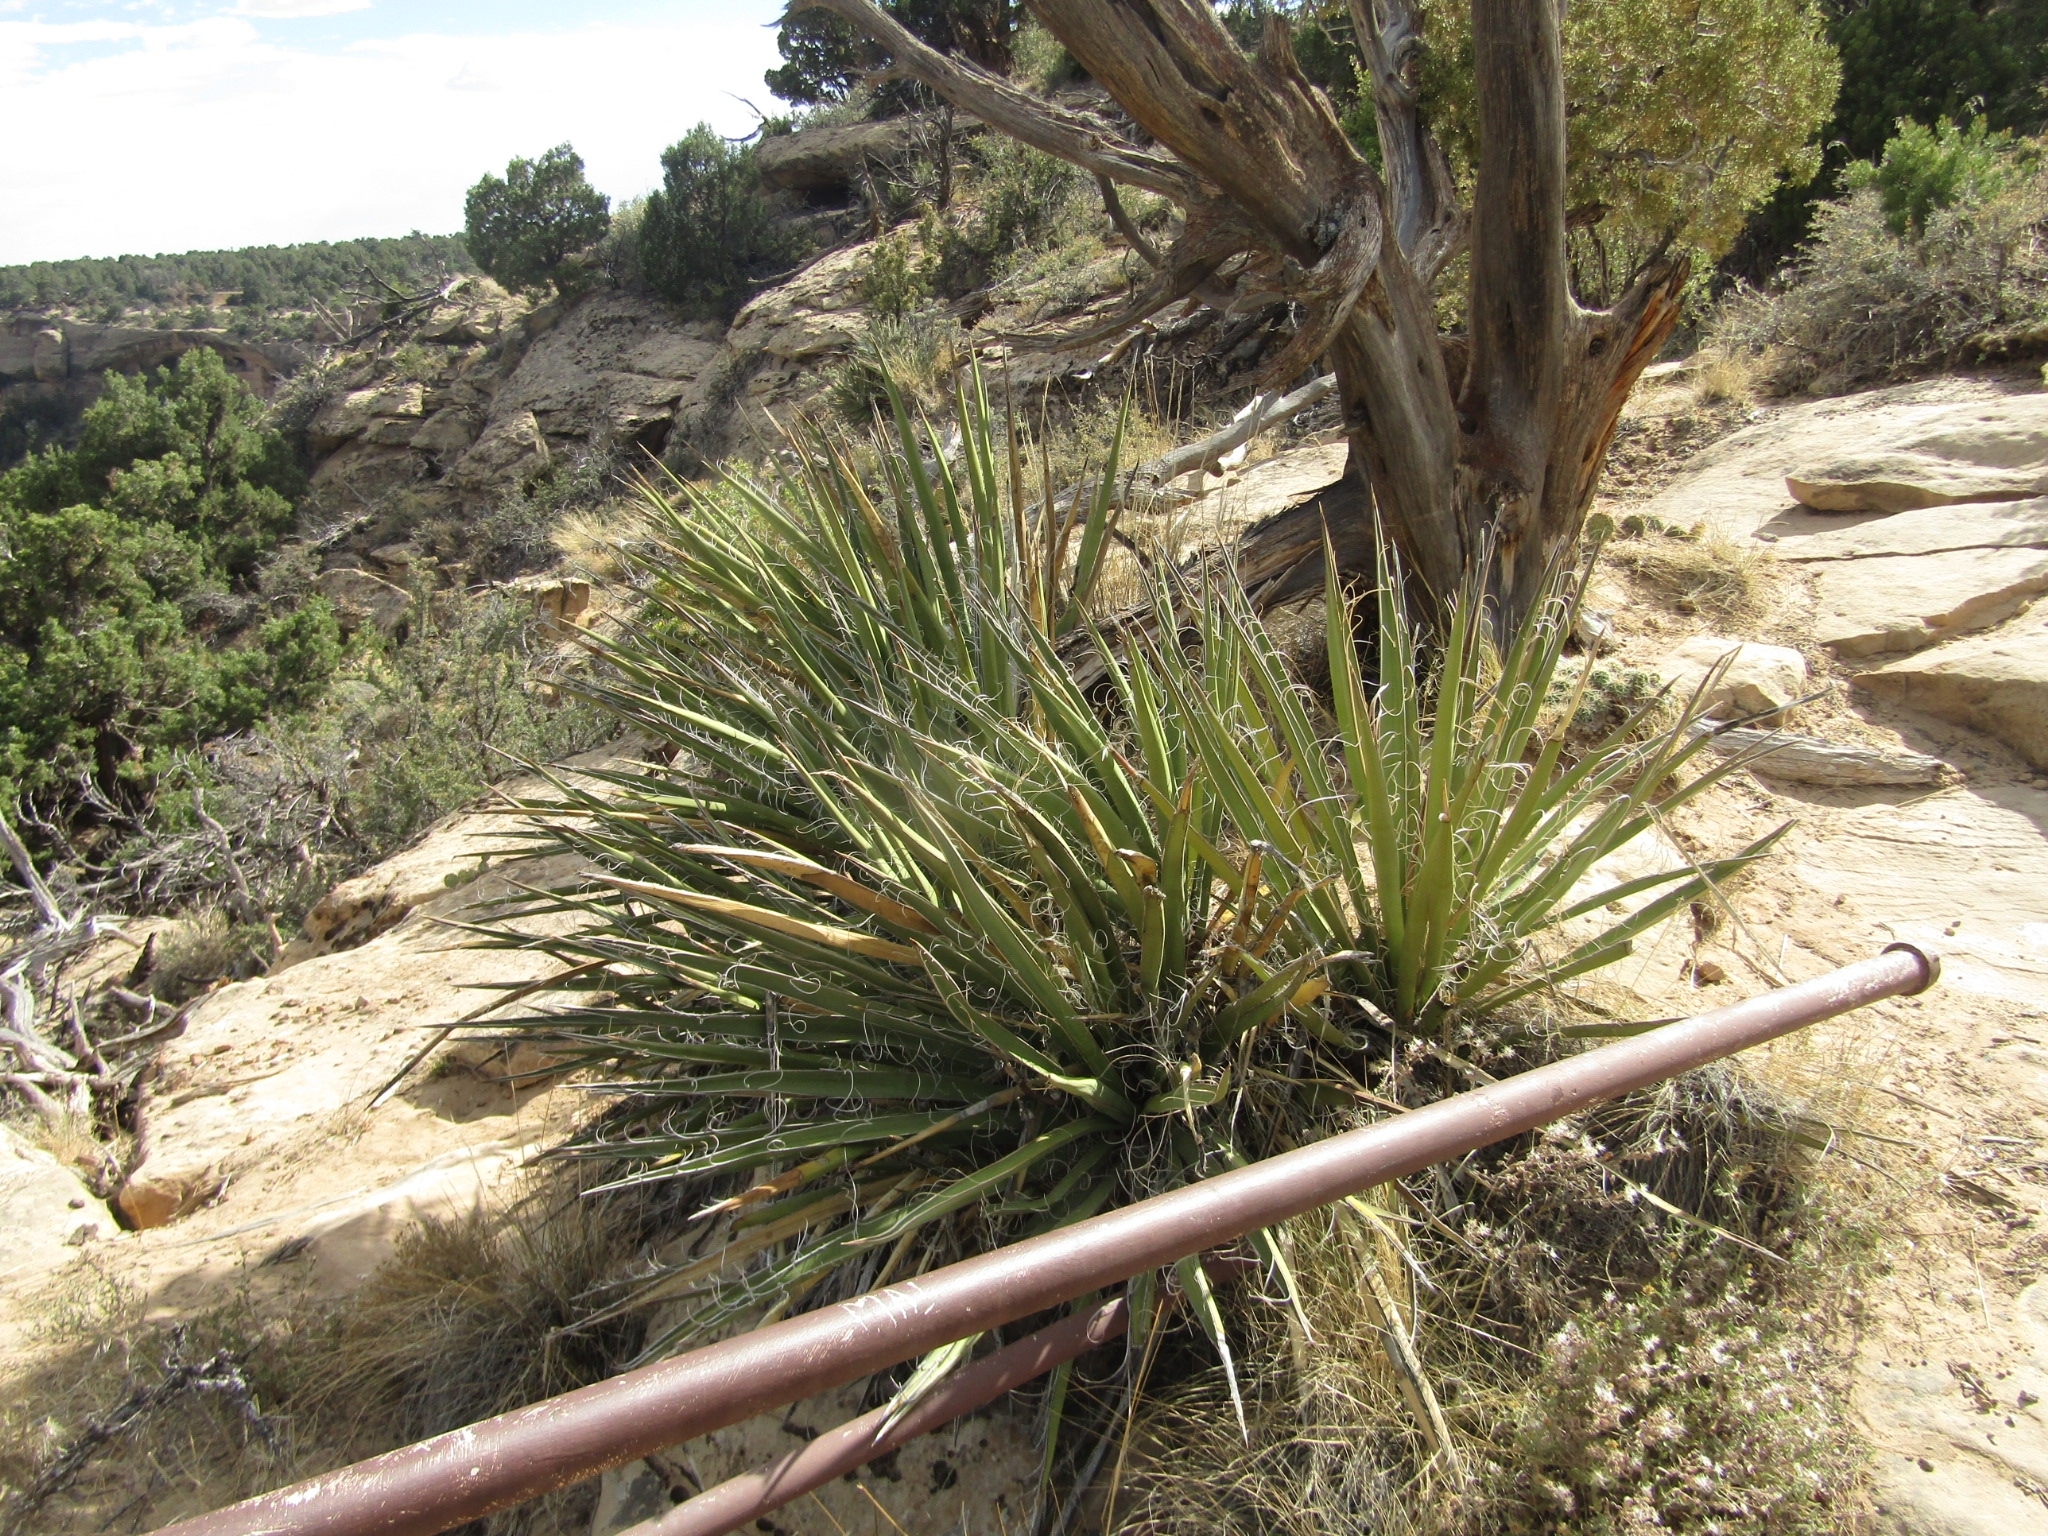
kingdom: Plantae
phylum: Tracheophyta
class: Liliopsida
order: Asparagales
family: Asparagaceae
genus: Yucca
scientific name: Yucca baccata
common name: Banana yucca
